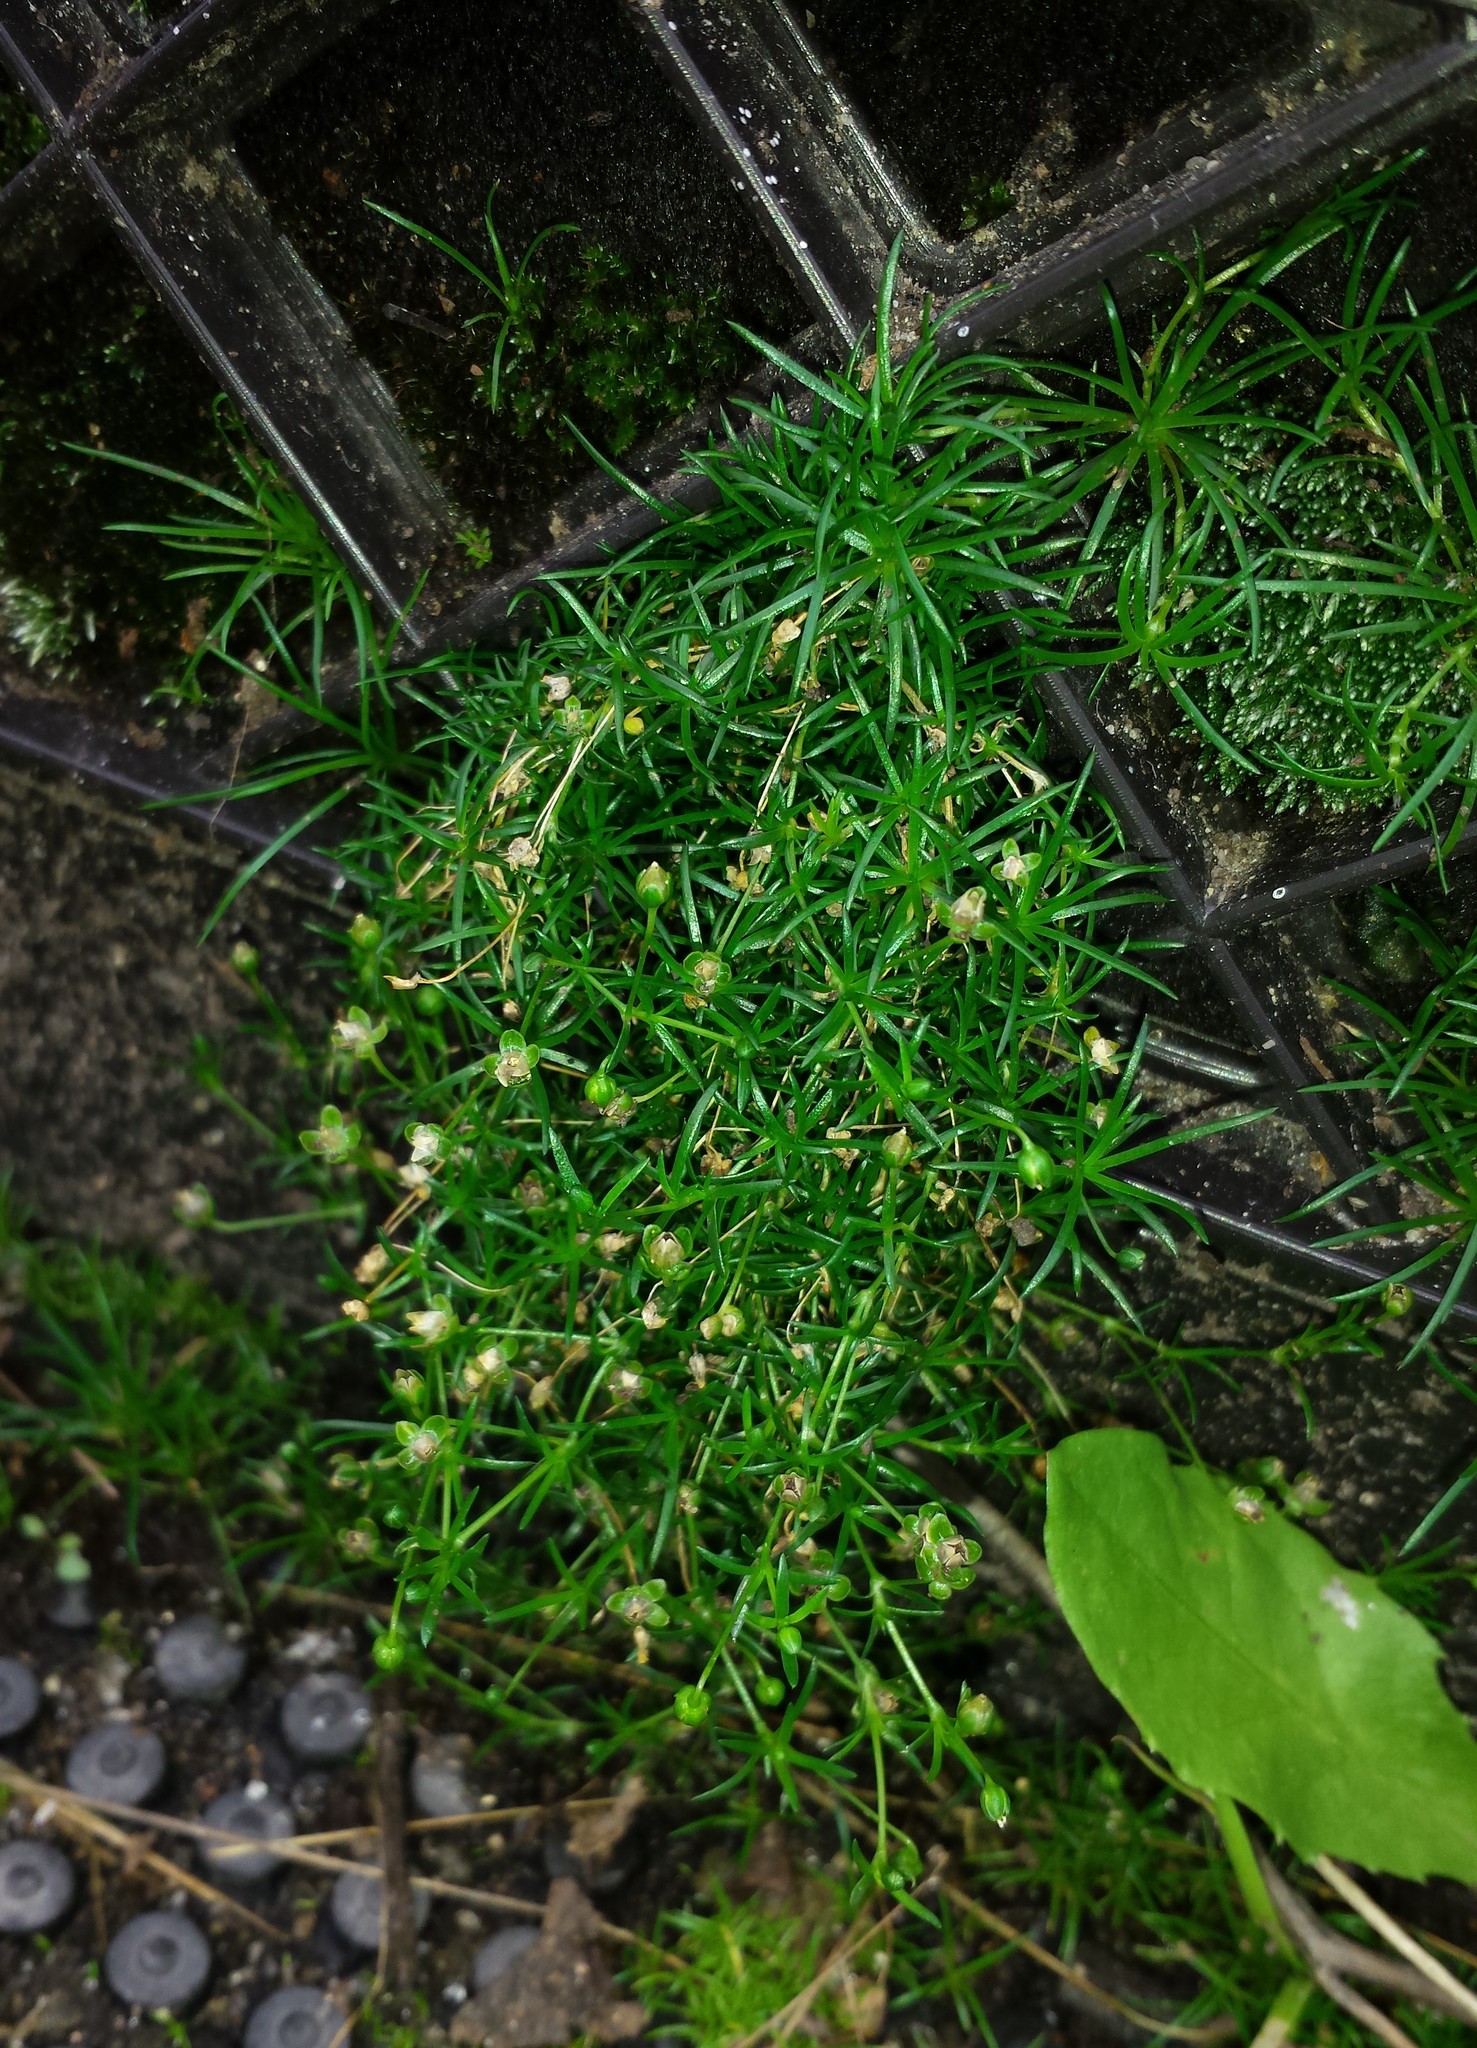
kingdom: Plantae
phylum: Tracheophyta
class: Magnoliopsida
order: Caryophyllales
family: Caryophyllaceae
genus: Sagina
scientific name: Sagina procumbens
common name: Procumbent pearlwort
